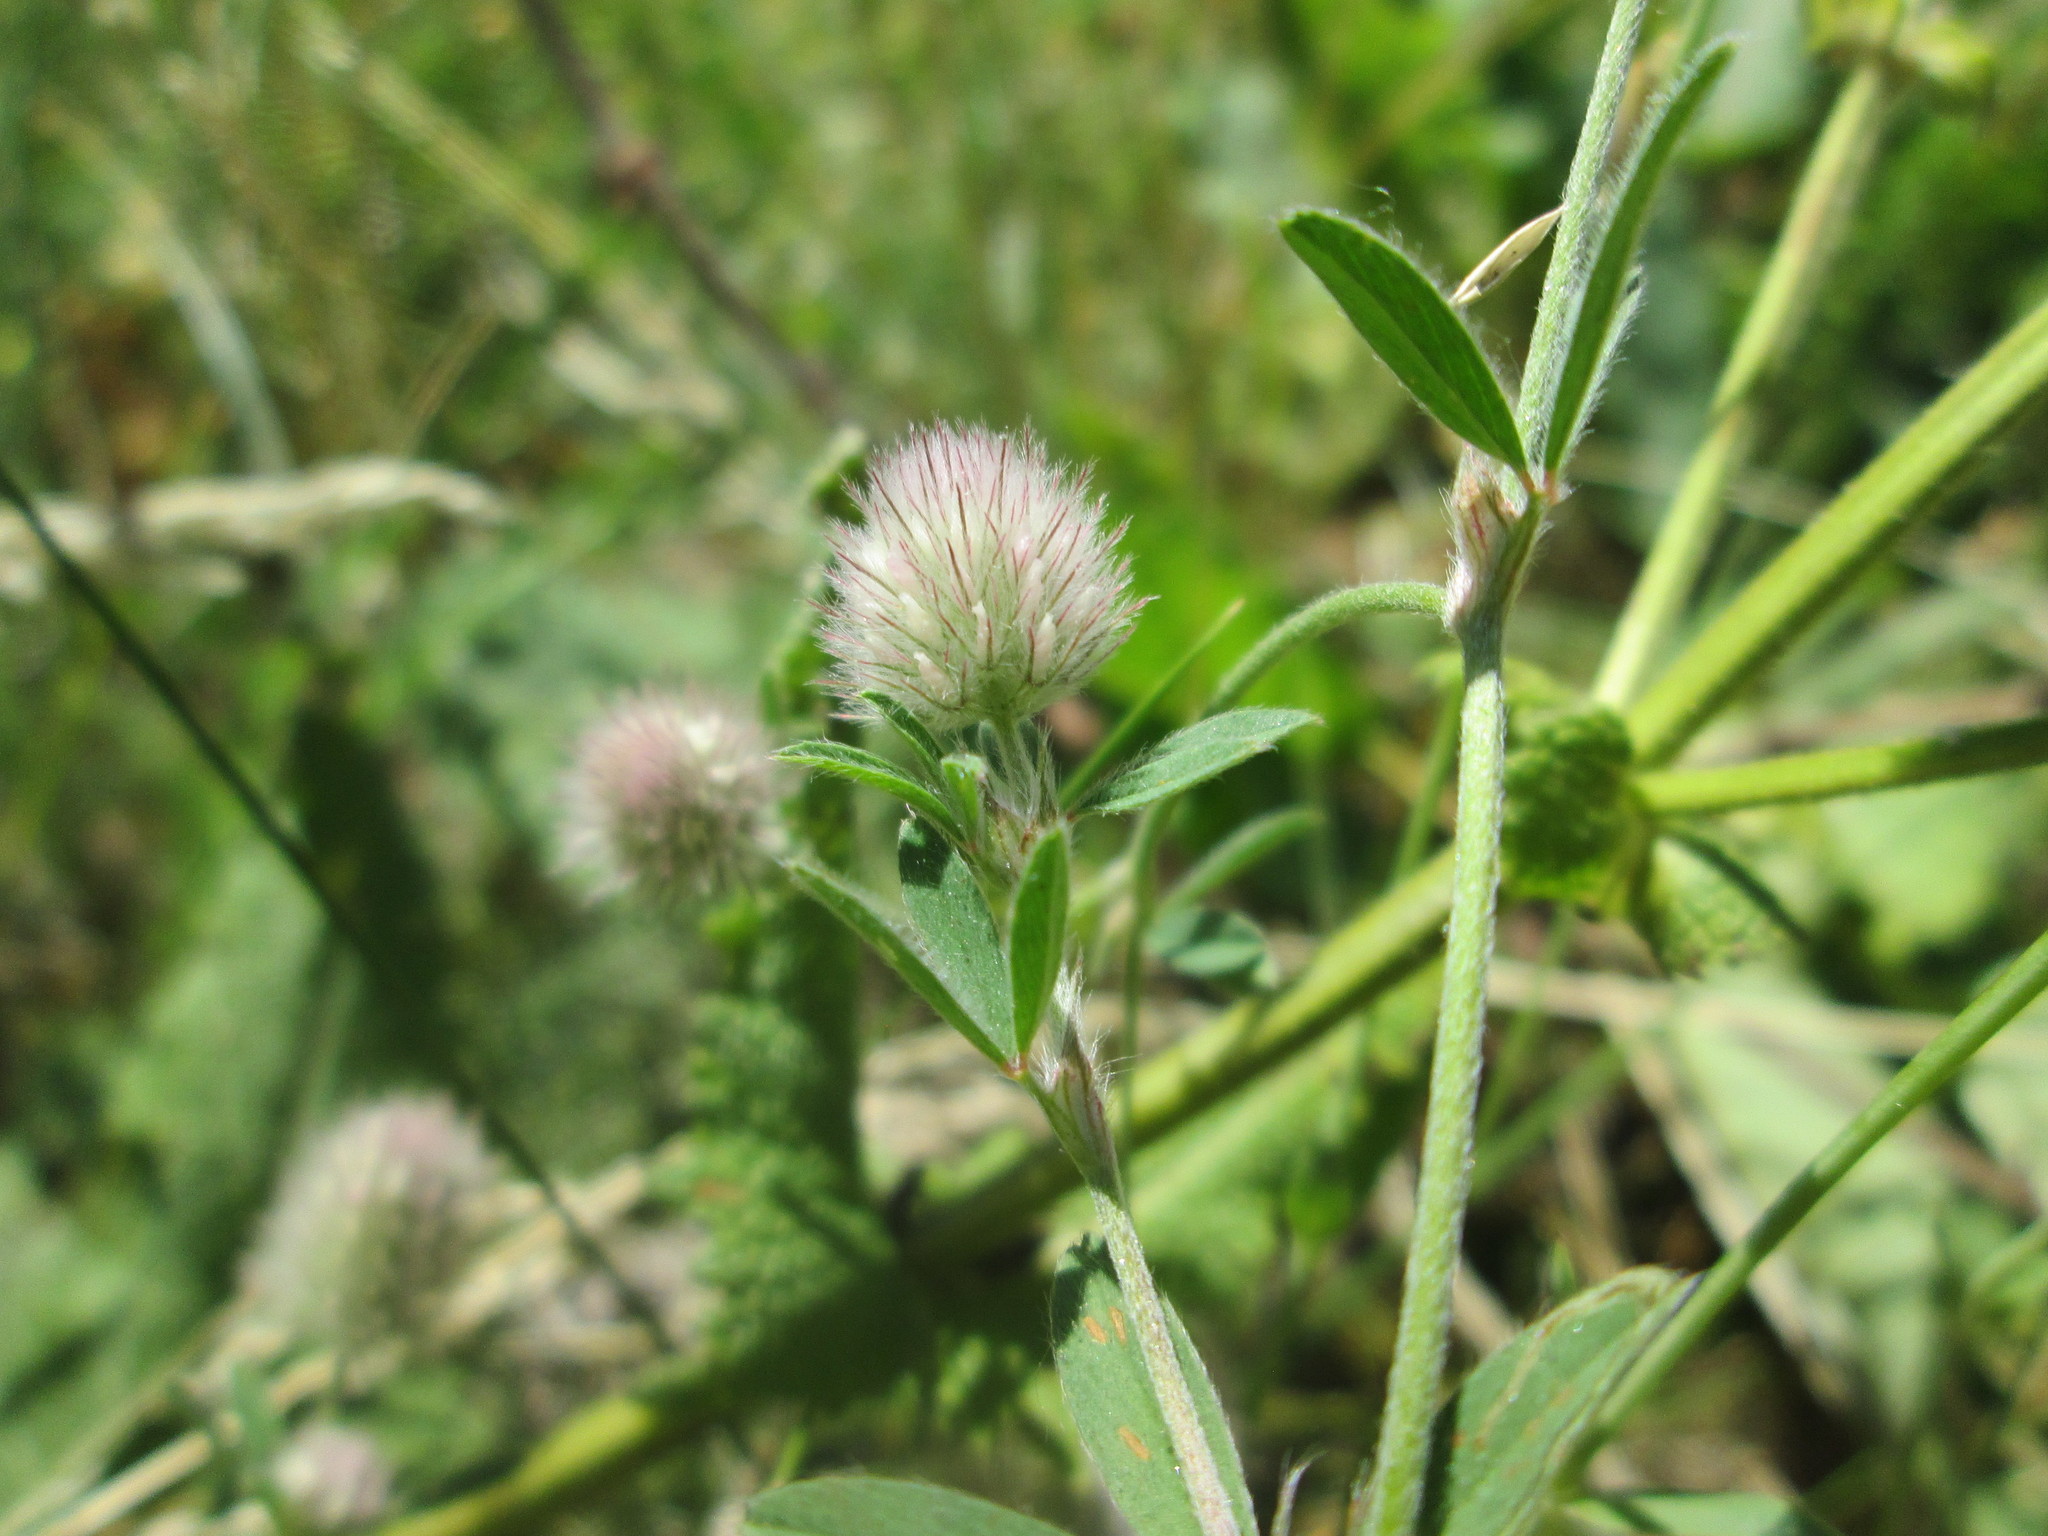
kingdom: Plantae
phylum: Tracheophyta
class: Magnoliopsida
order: Fabales
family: Fabaceae
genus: Trifolium
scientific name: Trifolium arvense
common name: Hare's-foot clover
